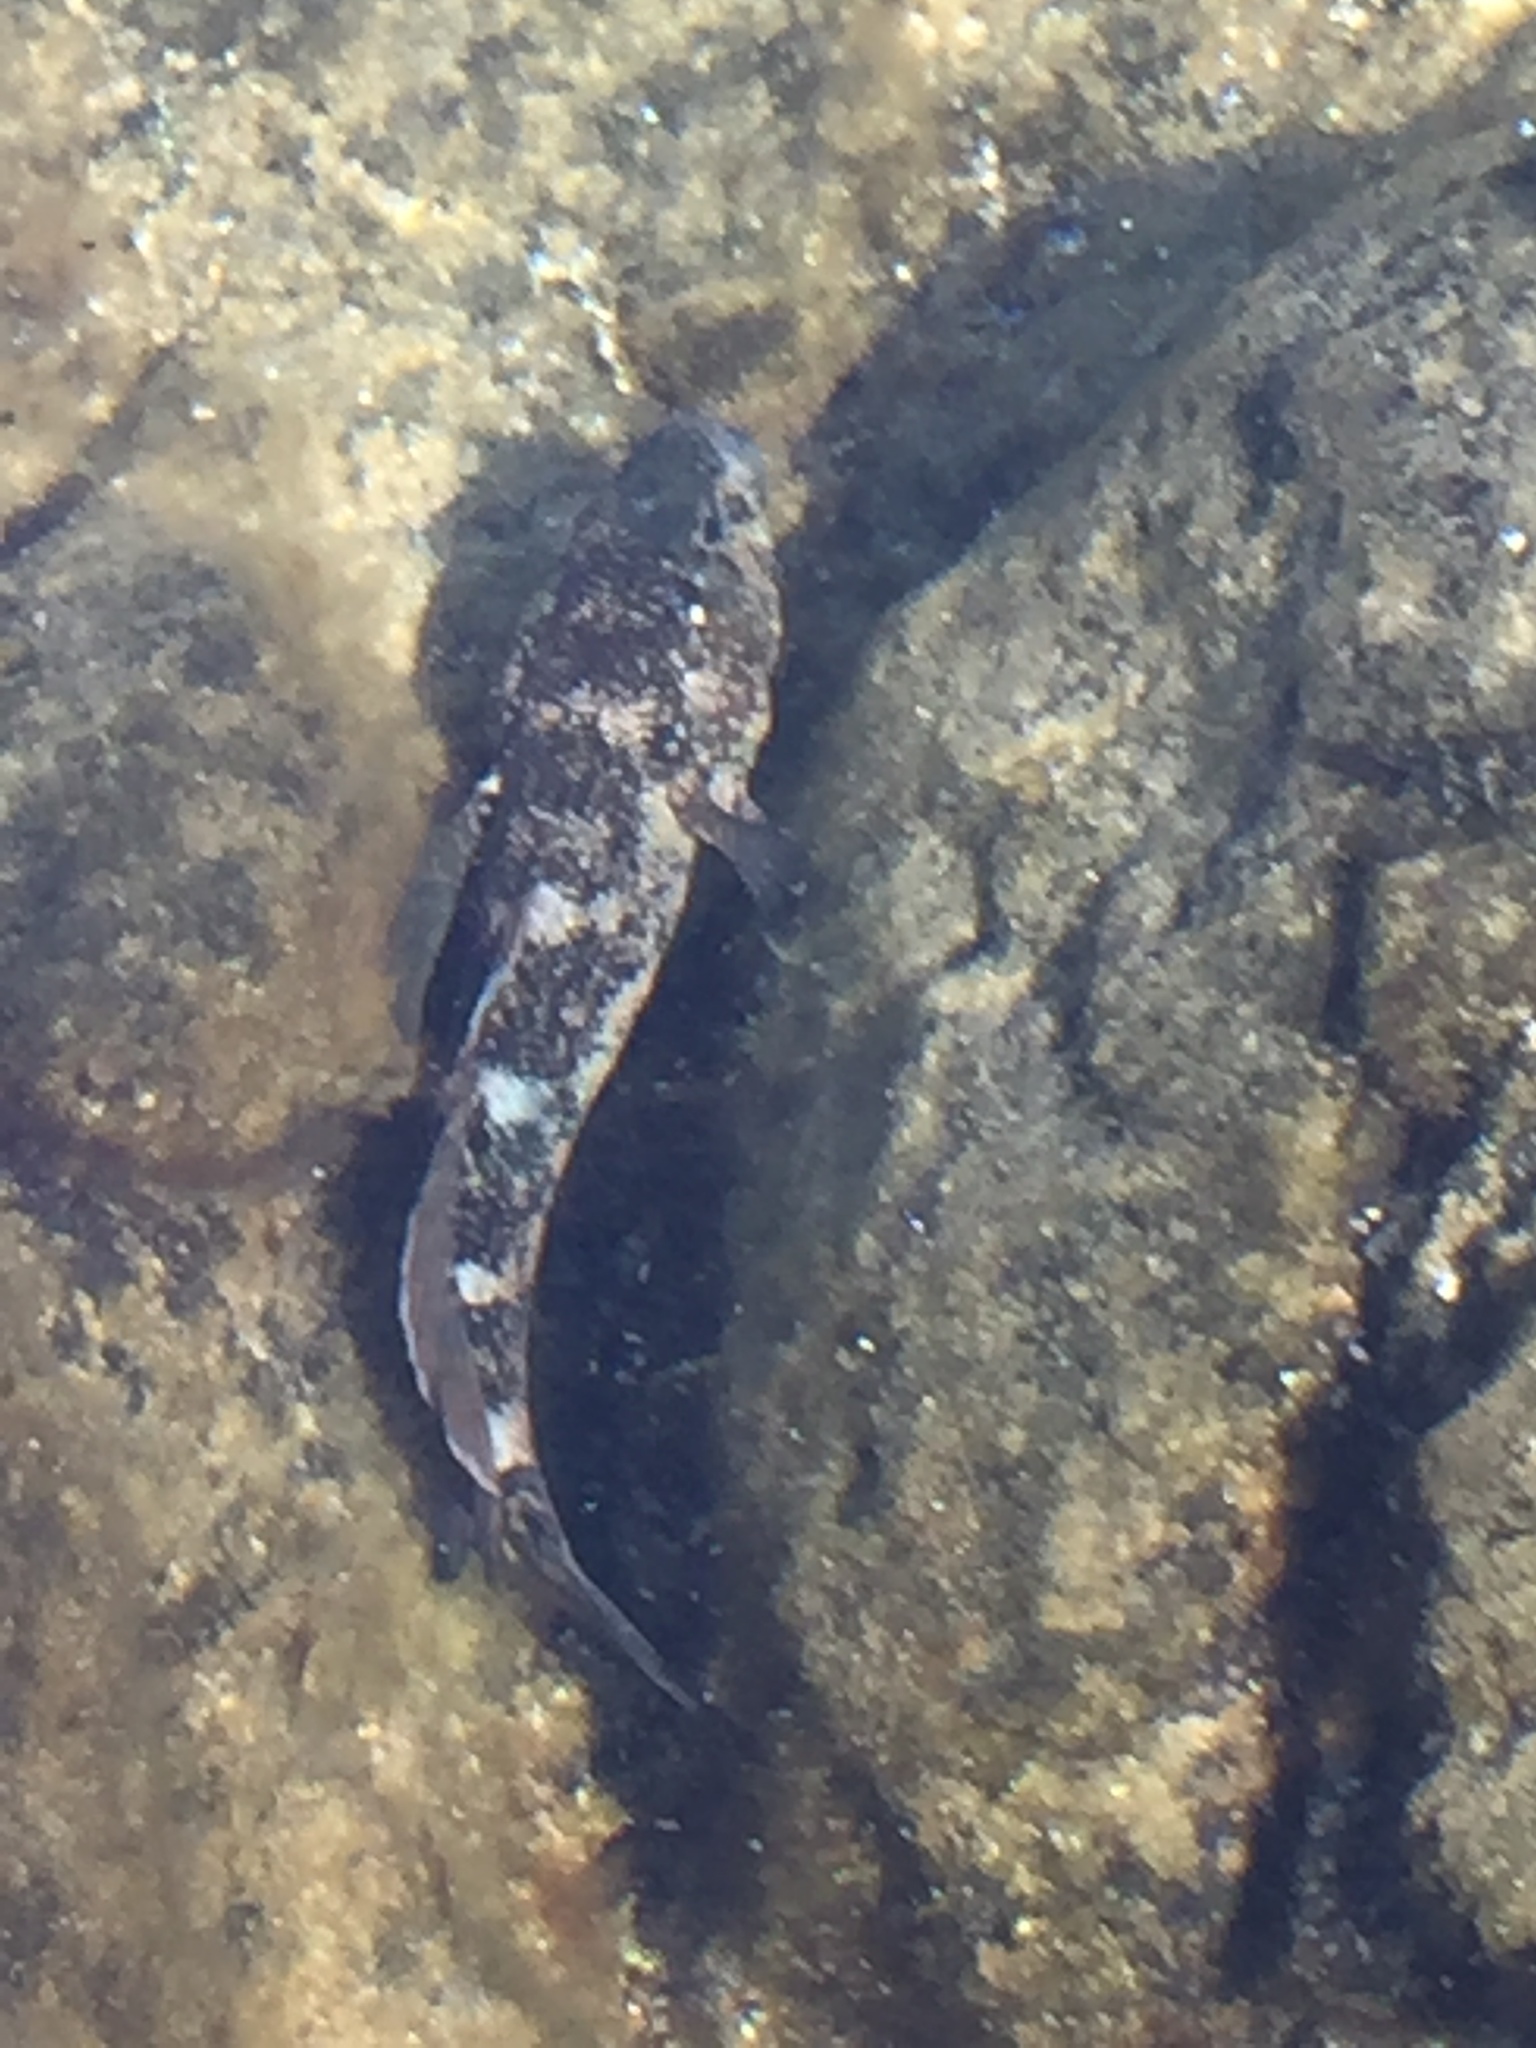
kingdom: Animalia
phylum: Chordata
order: Perciformes
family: Gobiidae
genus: Mauligobius
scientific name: Mauligobius maderensis
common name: Rock goby
